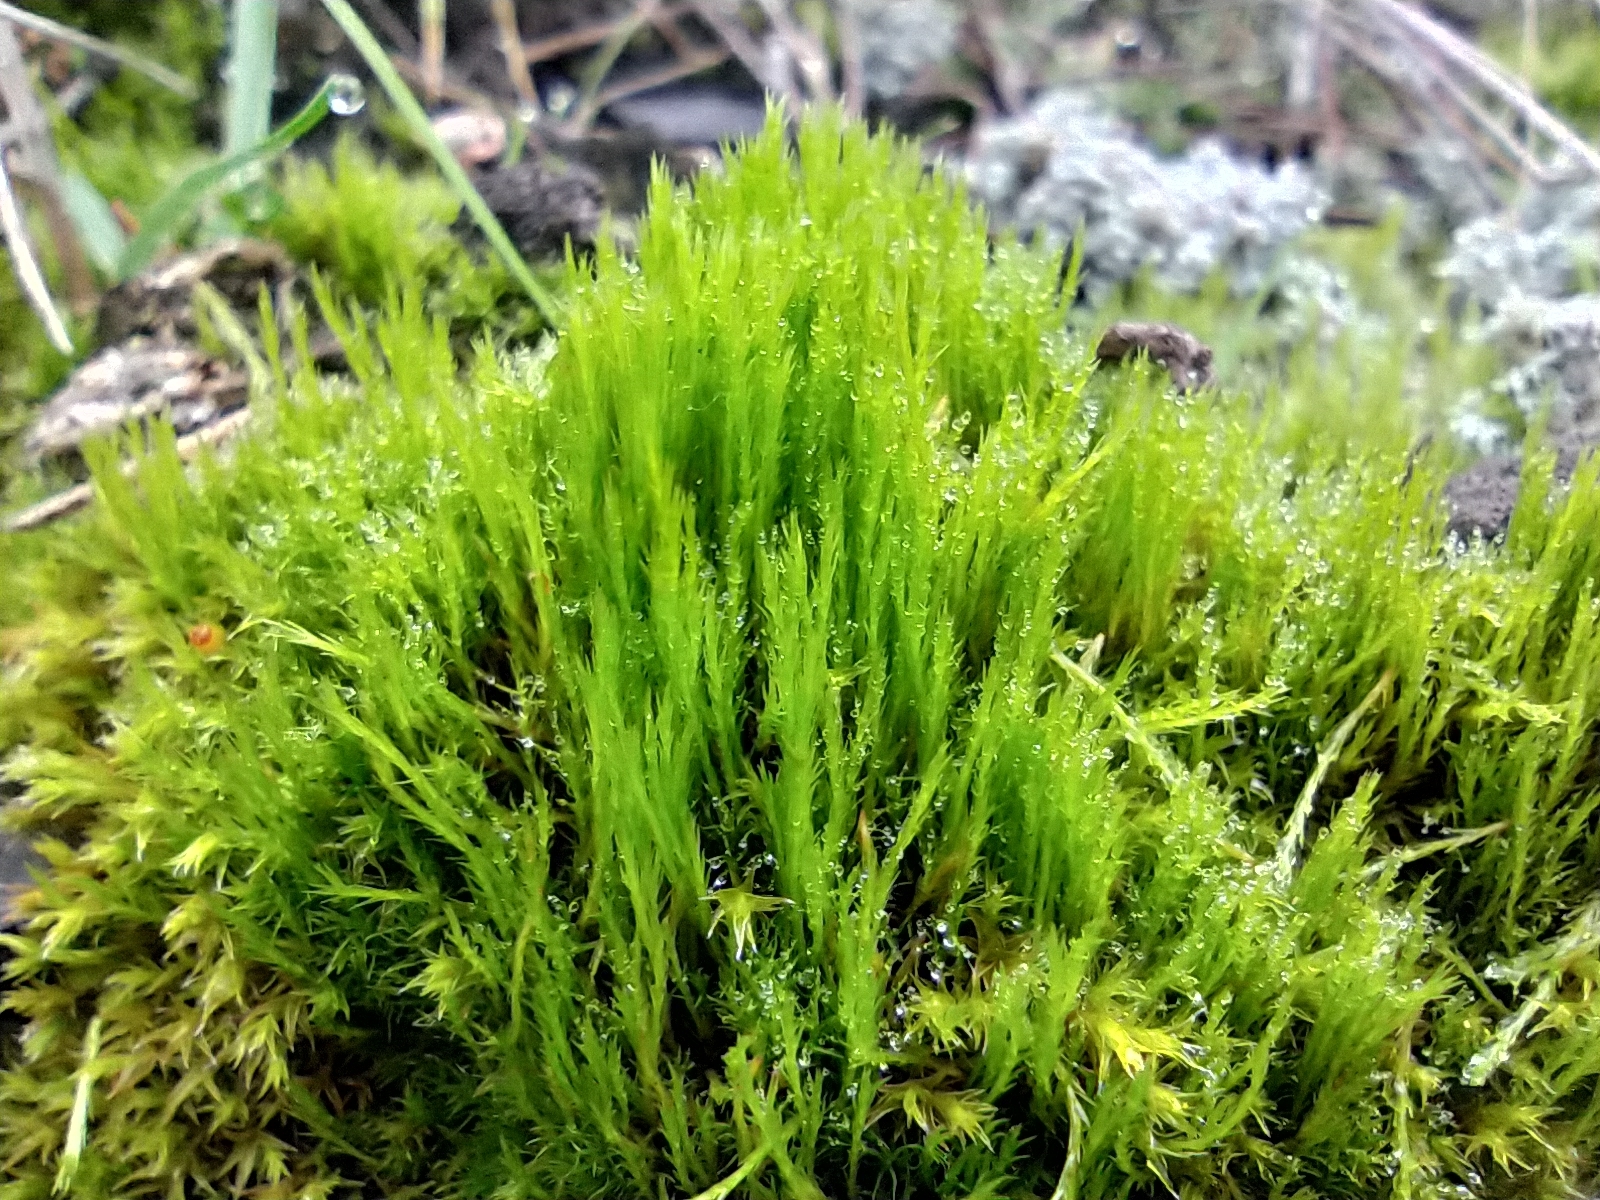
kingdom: Plantae
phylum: Bryophyta
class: Bryopsida
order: Scouleriales
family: Flexitrichaceae
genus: Flexitrichum
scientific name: Flexitrichum flexicaule
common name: Bendy ditrichum
